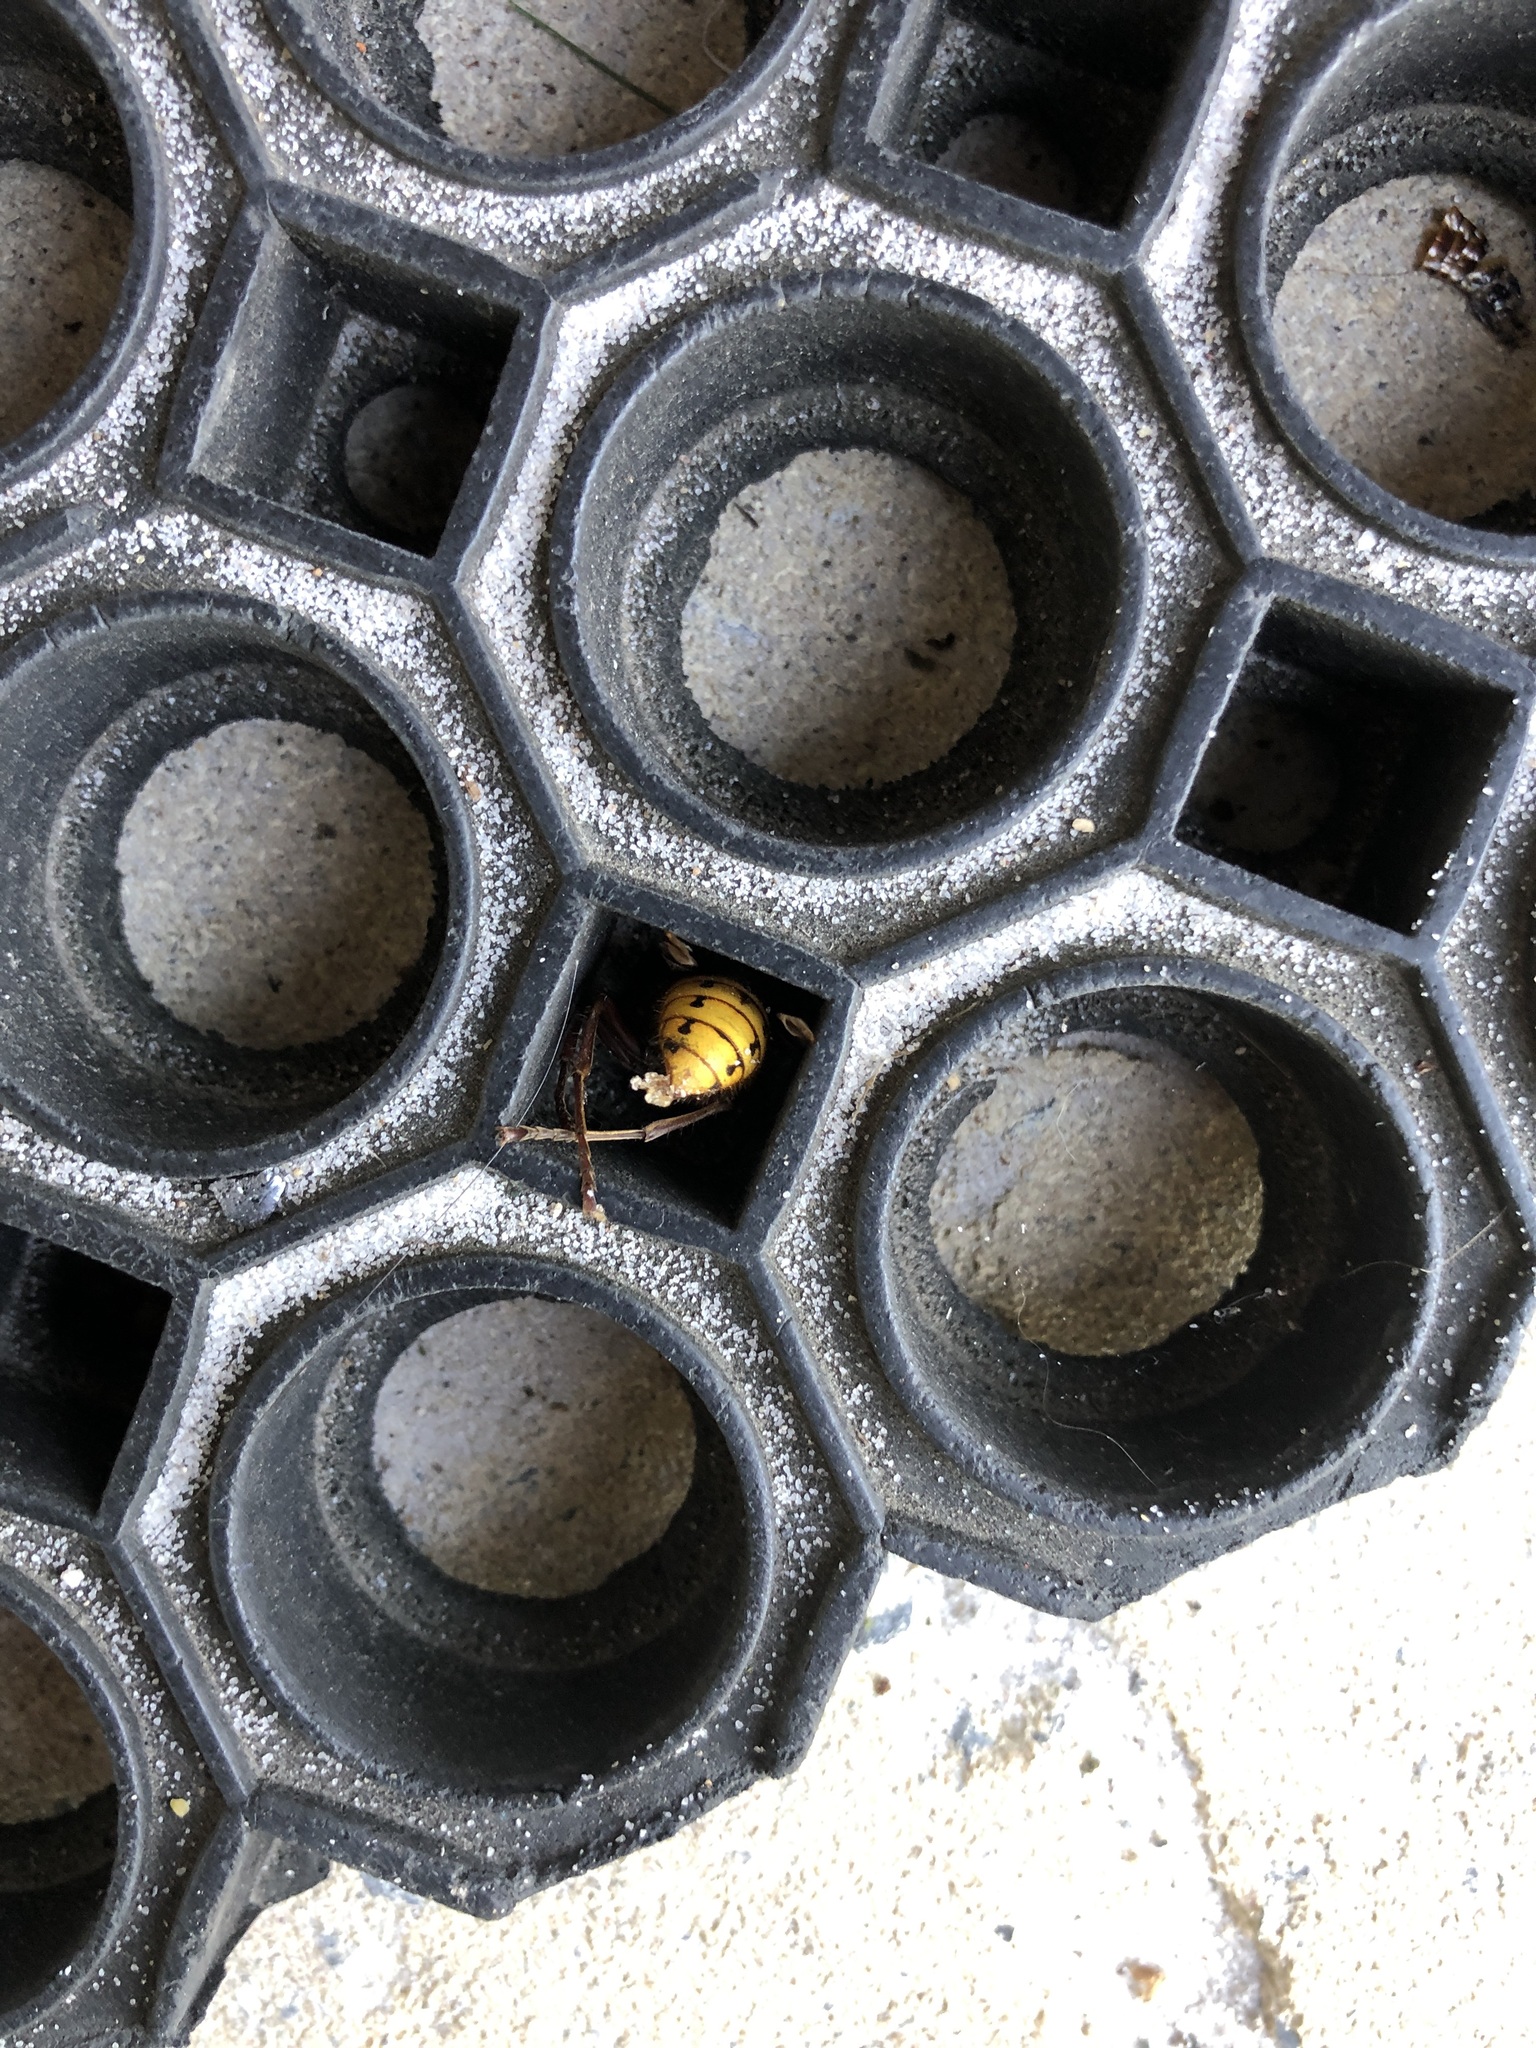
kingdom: Animalia
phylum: Arthropoda
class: Insecta
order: Hymenoptera
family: Vespidae
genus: Vespa
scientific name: Vespa crabro
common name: Hornet
